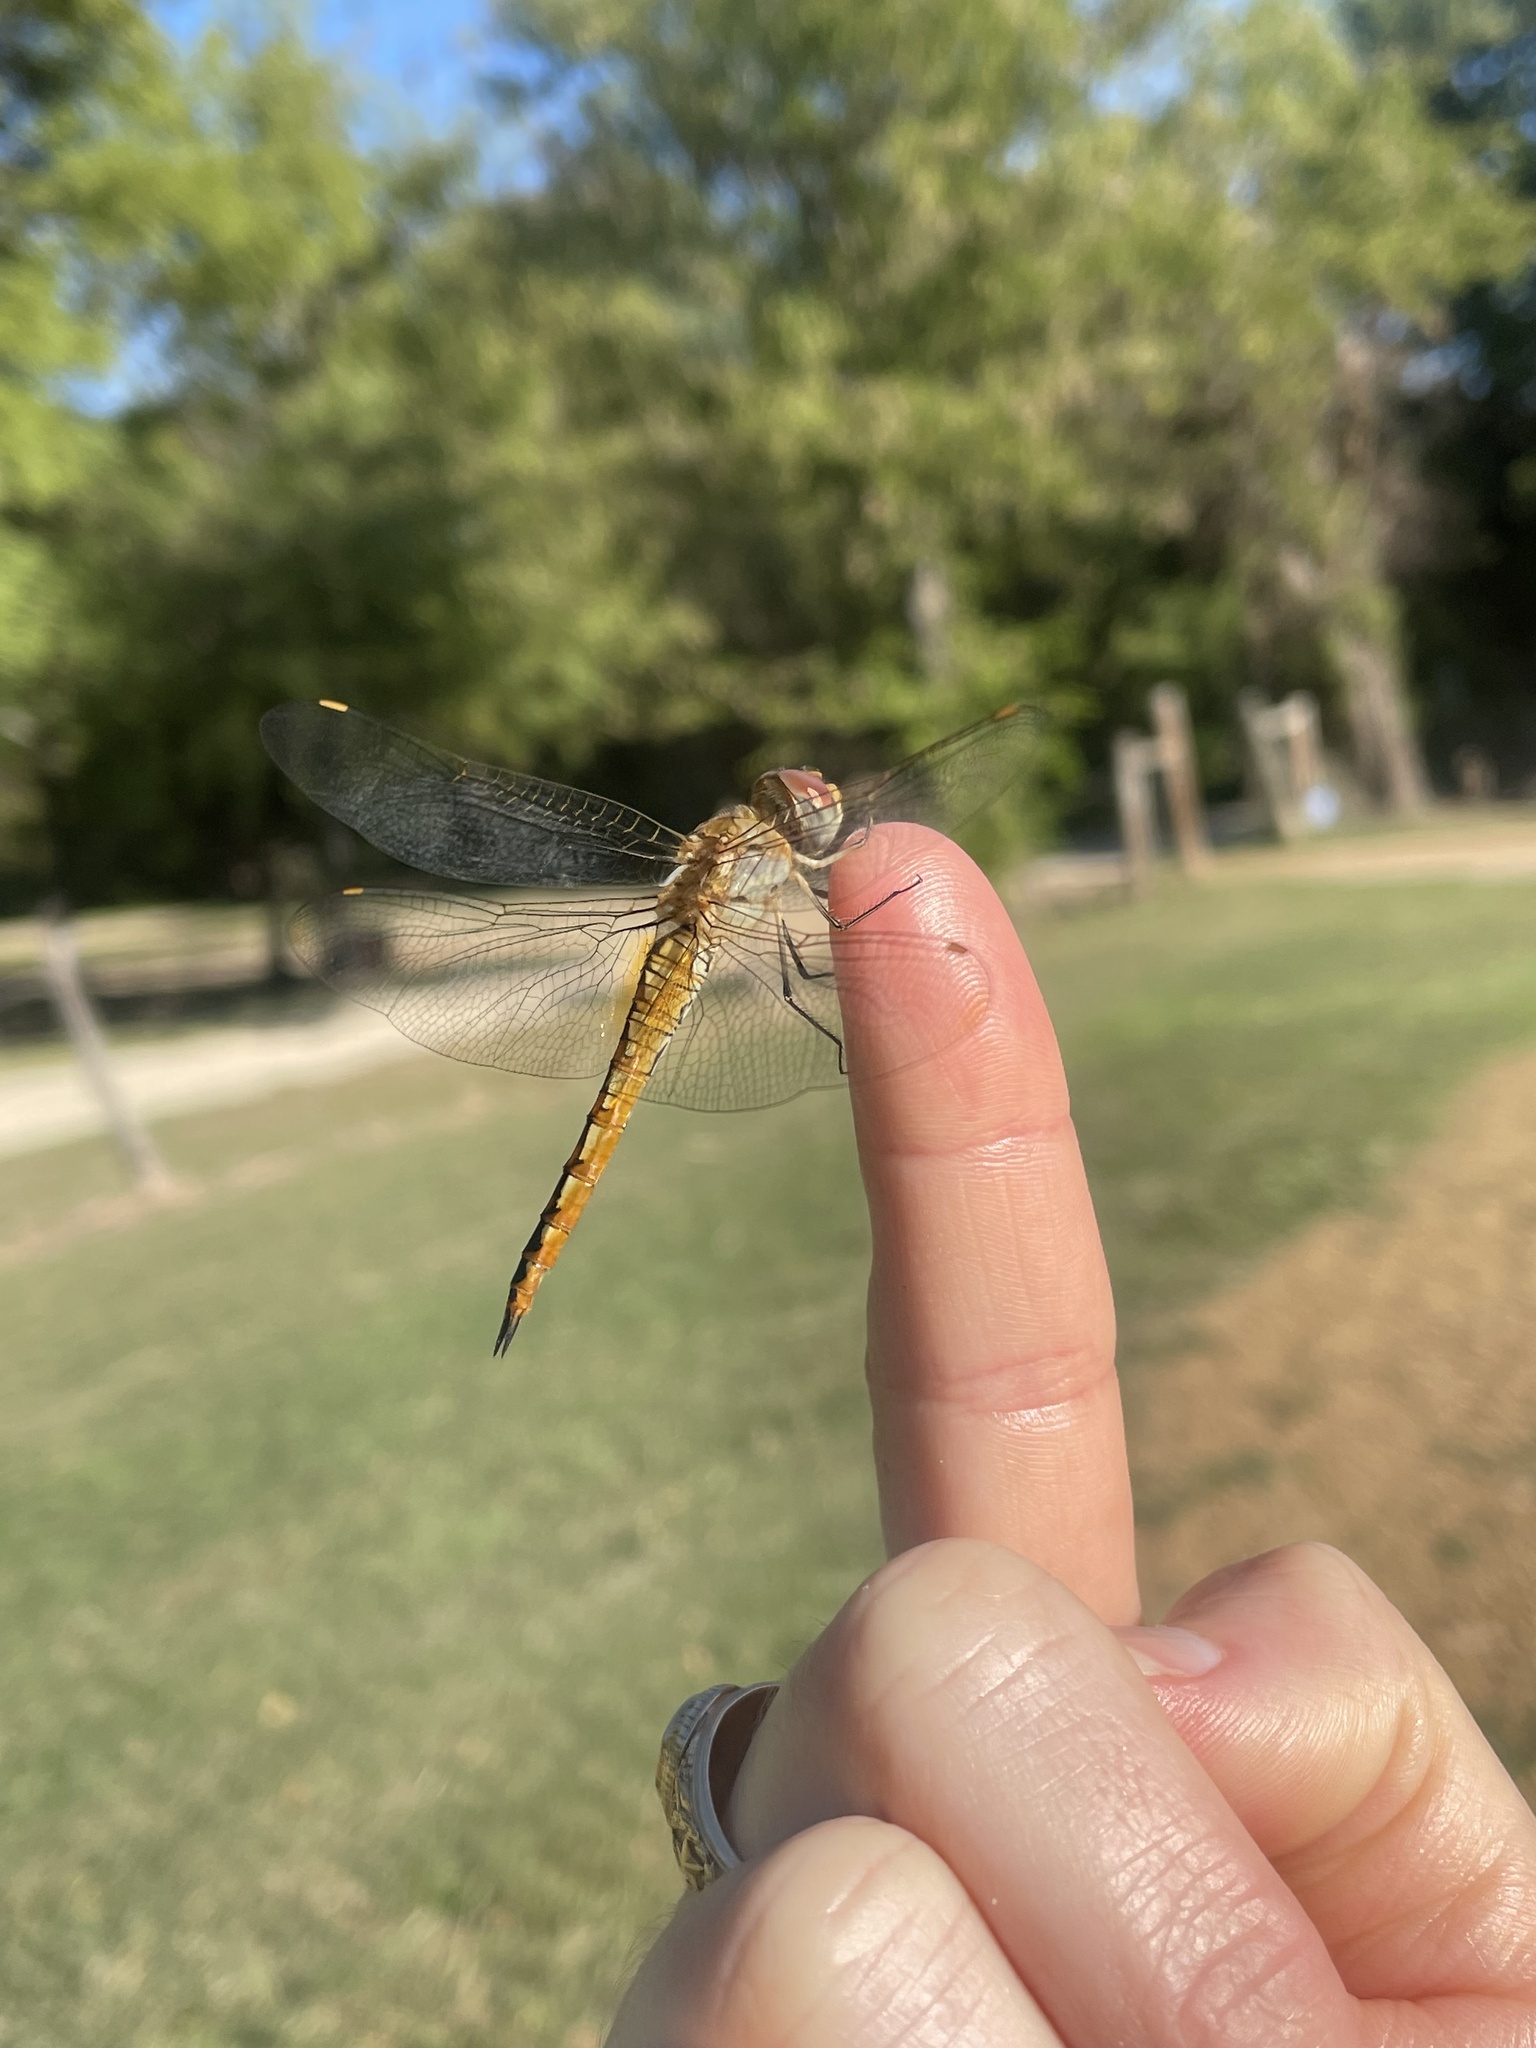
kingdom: Animalia
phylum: Arthropoda
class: Insecta
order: Odonata
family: Libellulidae
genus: Pantala
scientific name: Pantala flavescens
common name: Wandering glider
